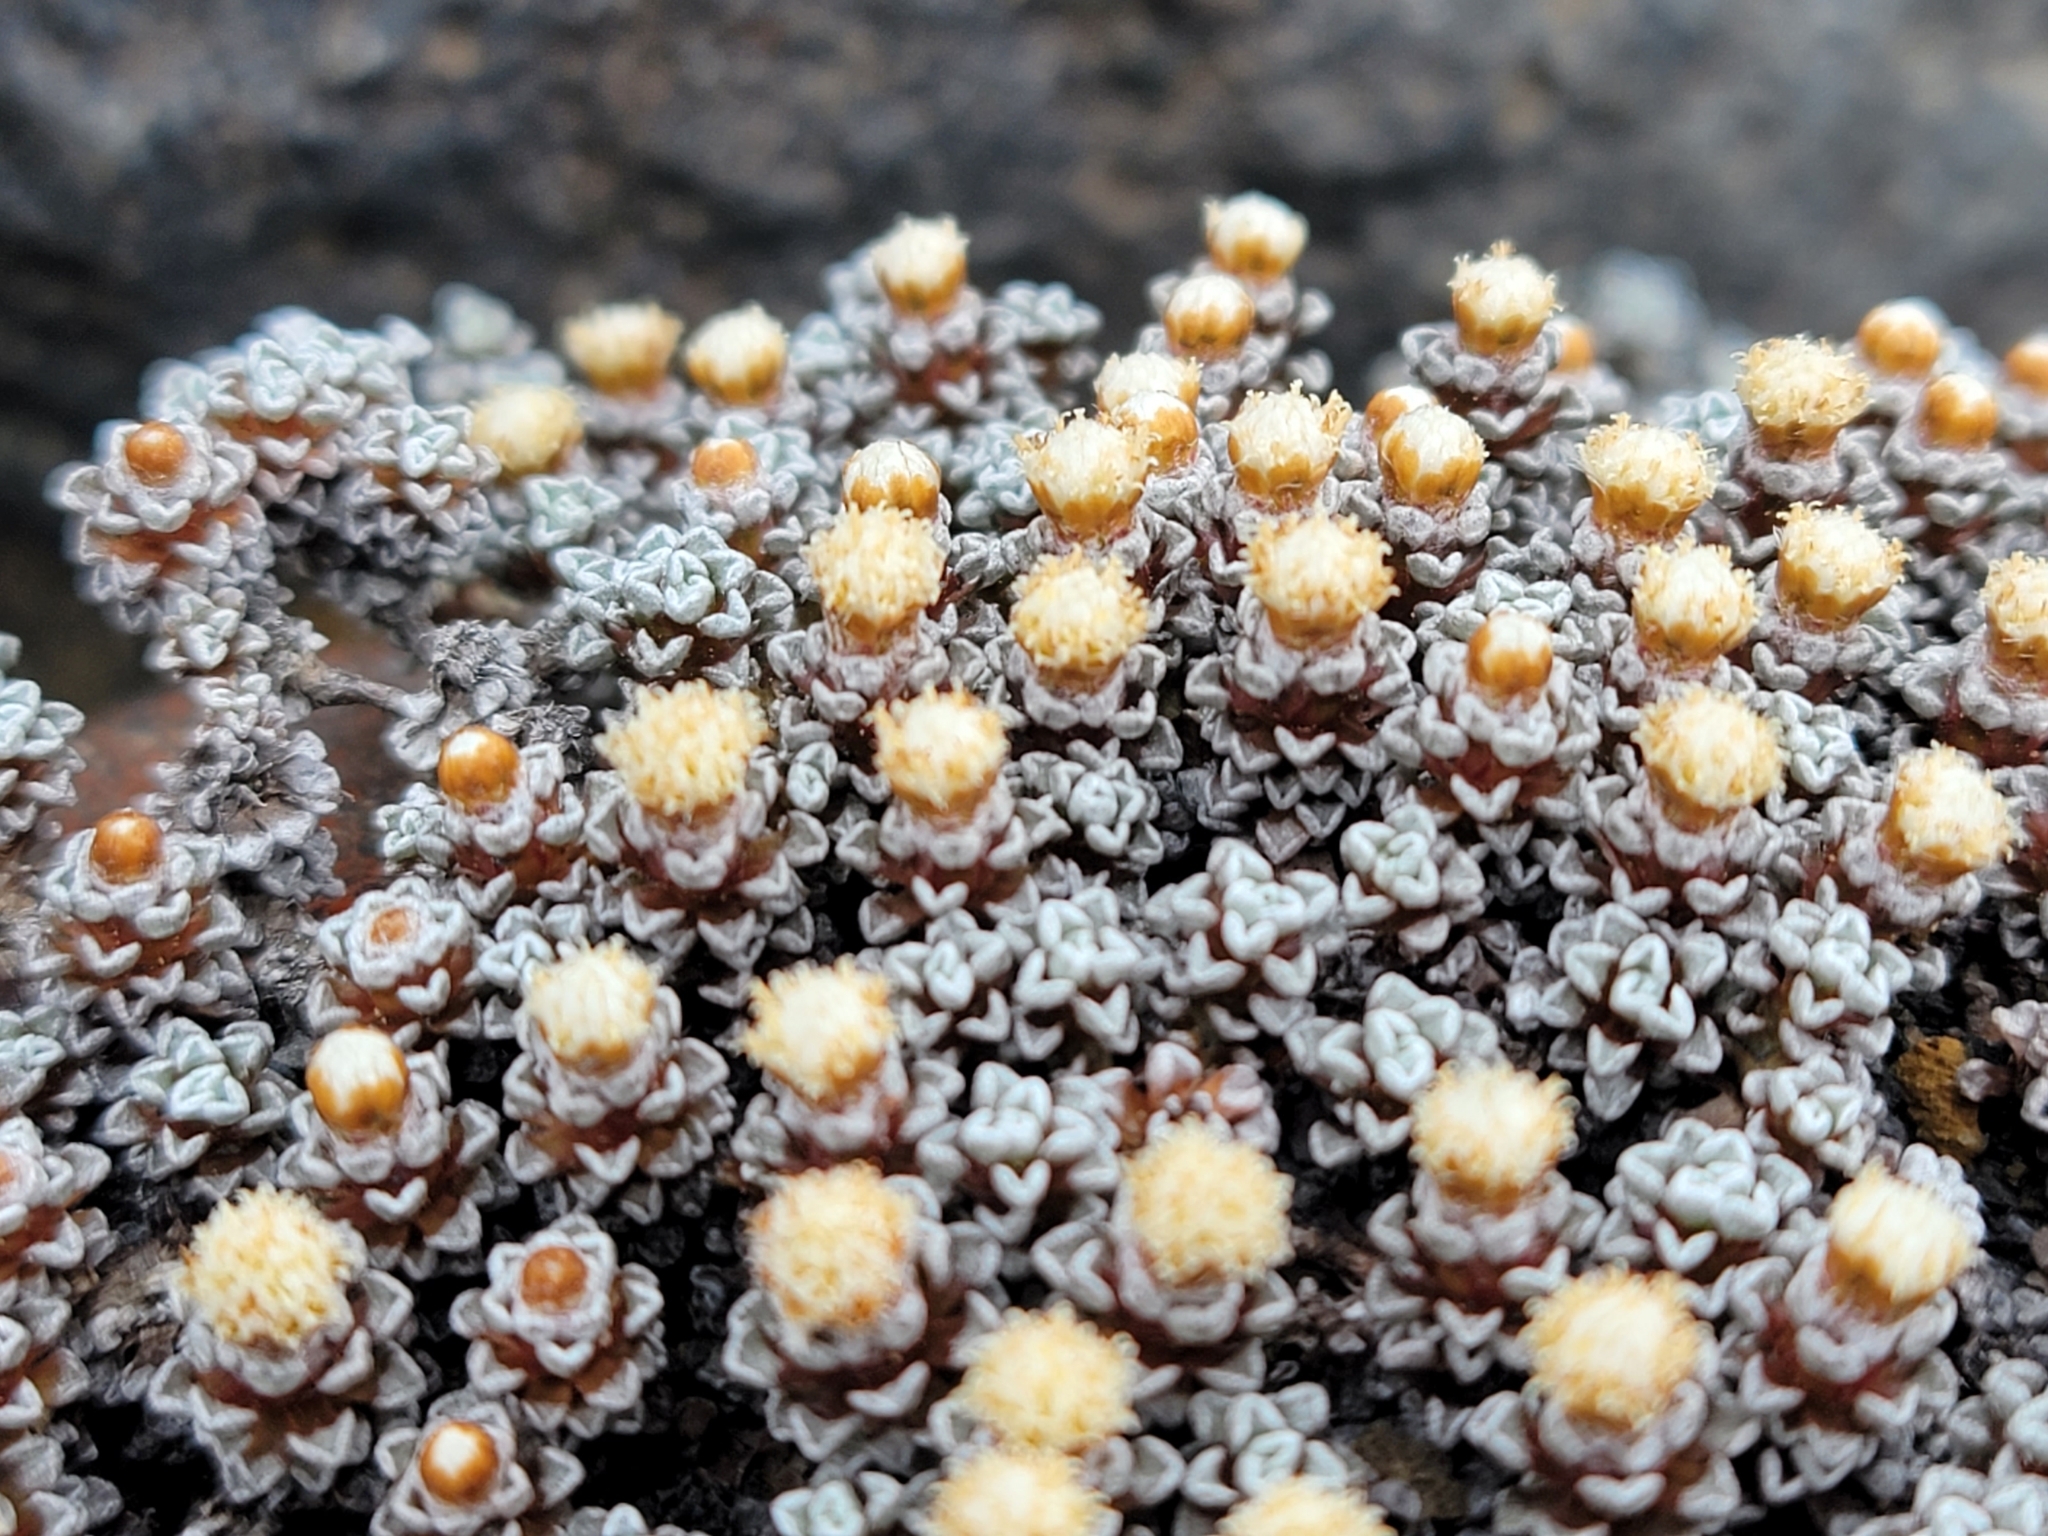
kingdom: Plantae
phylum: Tracheophyta
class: Magnoliopsida
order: Asterales
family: Asteraceae
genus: Raoulia
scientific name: Raoulia albosericea
